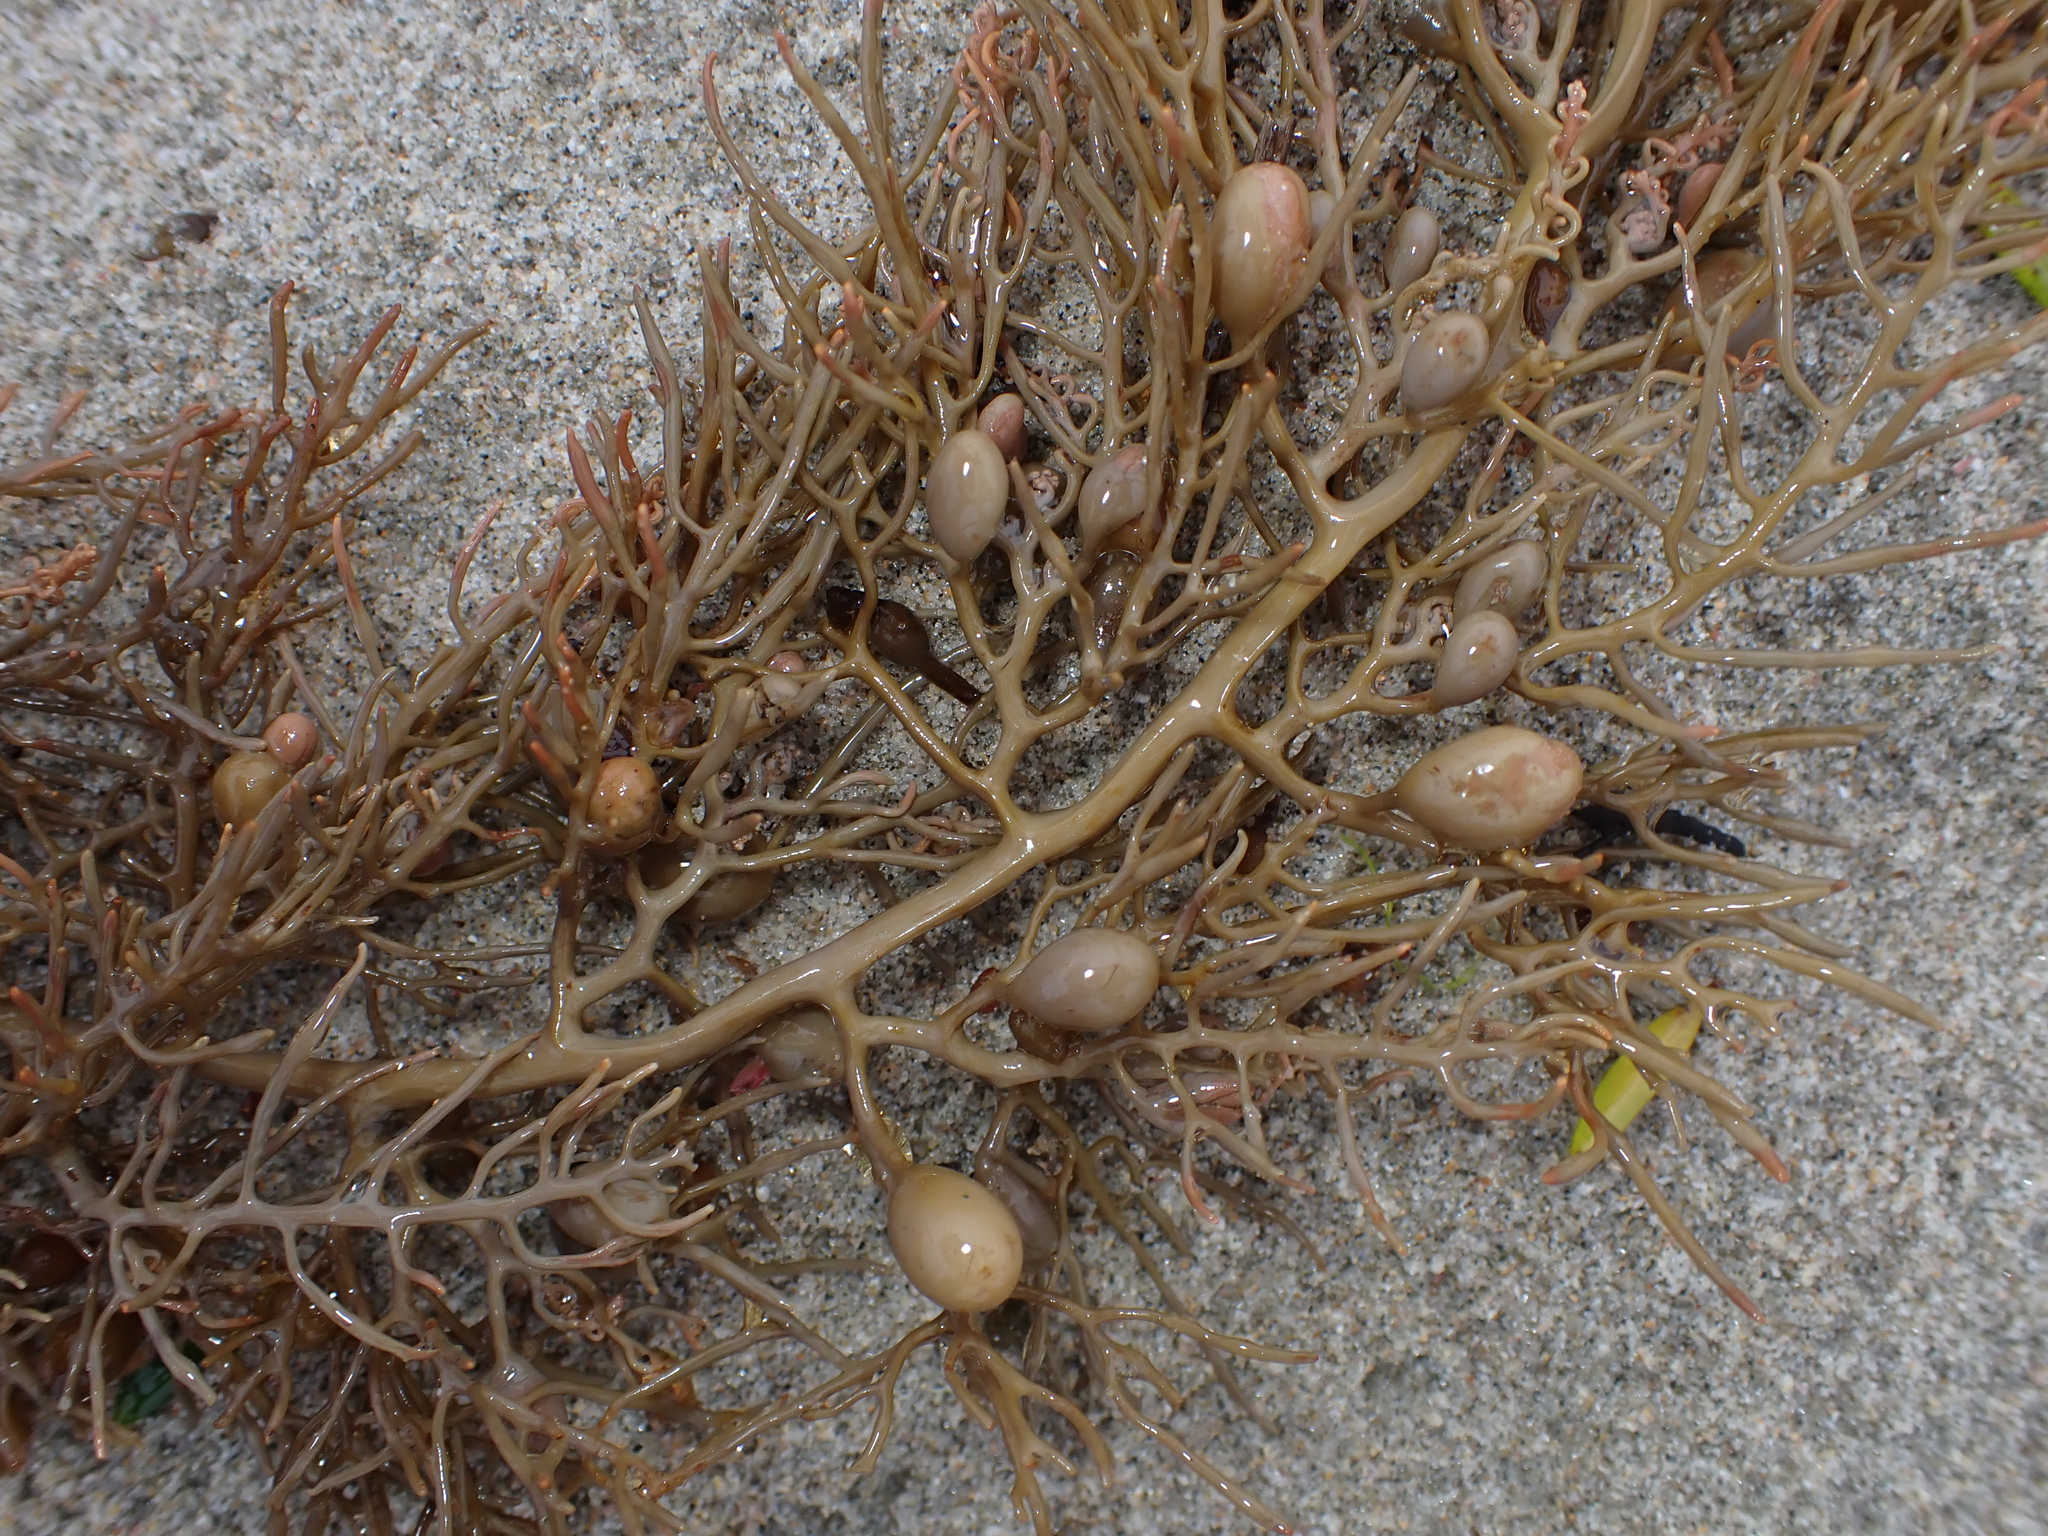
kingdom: Chromista
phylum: Ochrophyta
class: Phaeophyceae
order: Fucales
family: Sargassaceae
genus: Cystophora
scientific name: Cystophora retroflexa
